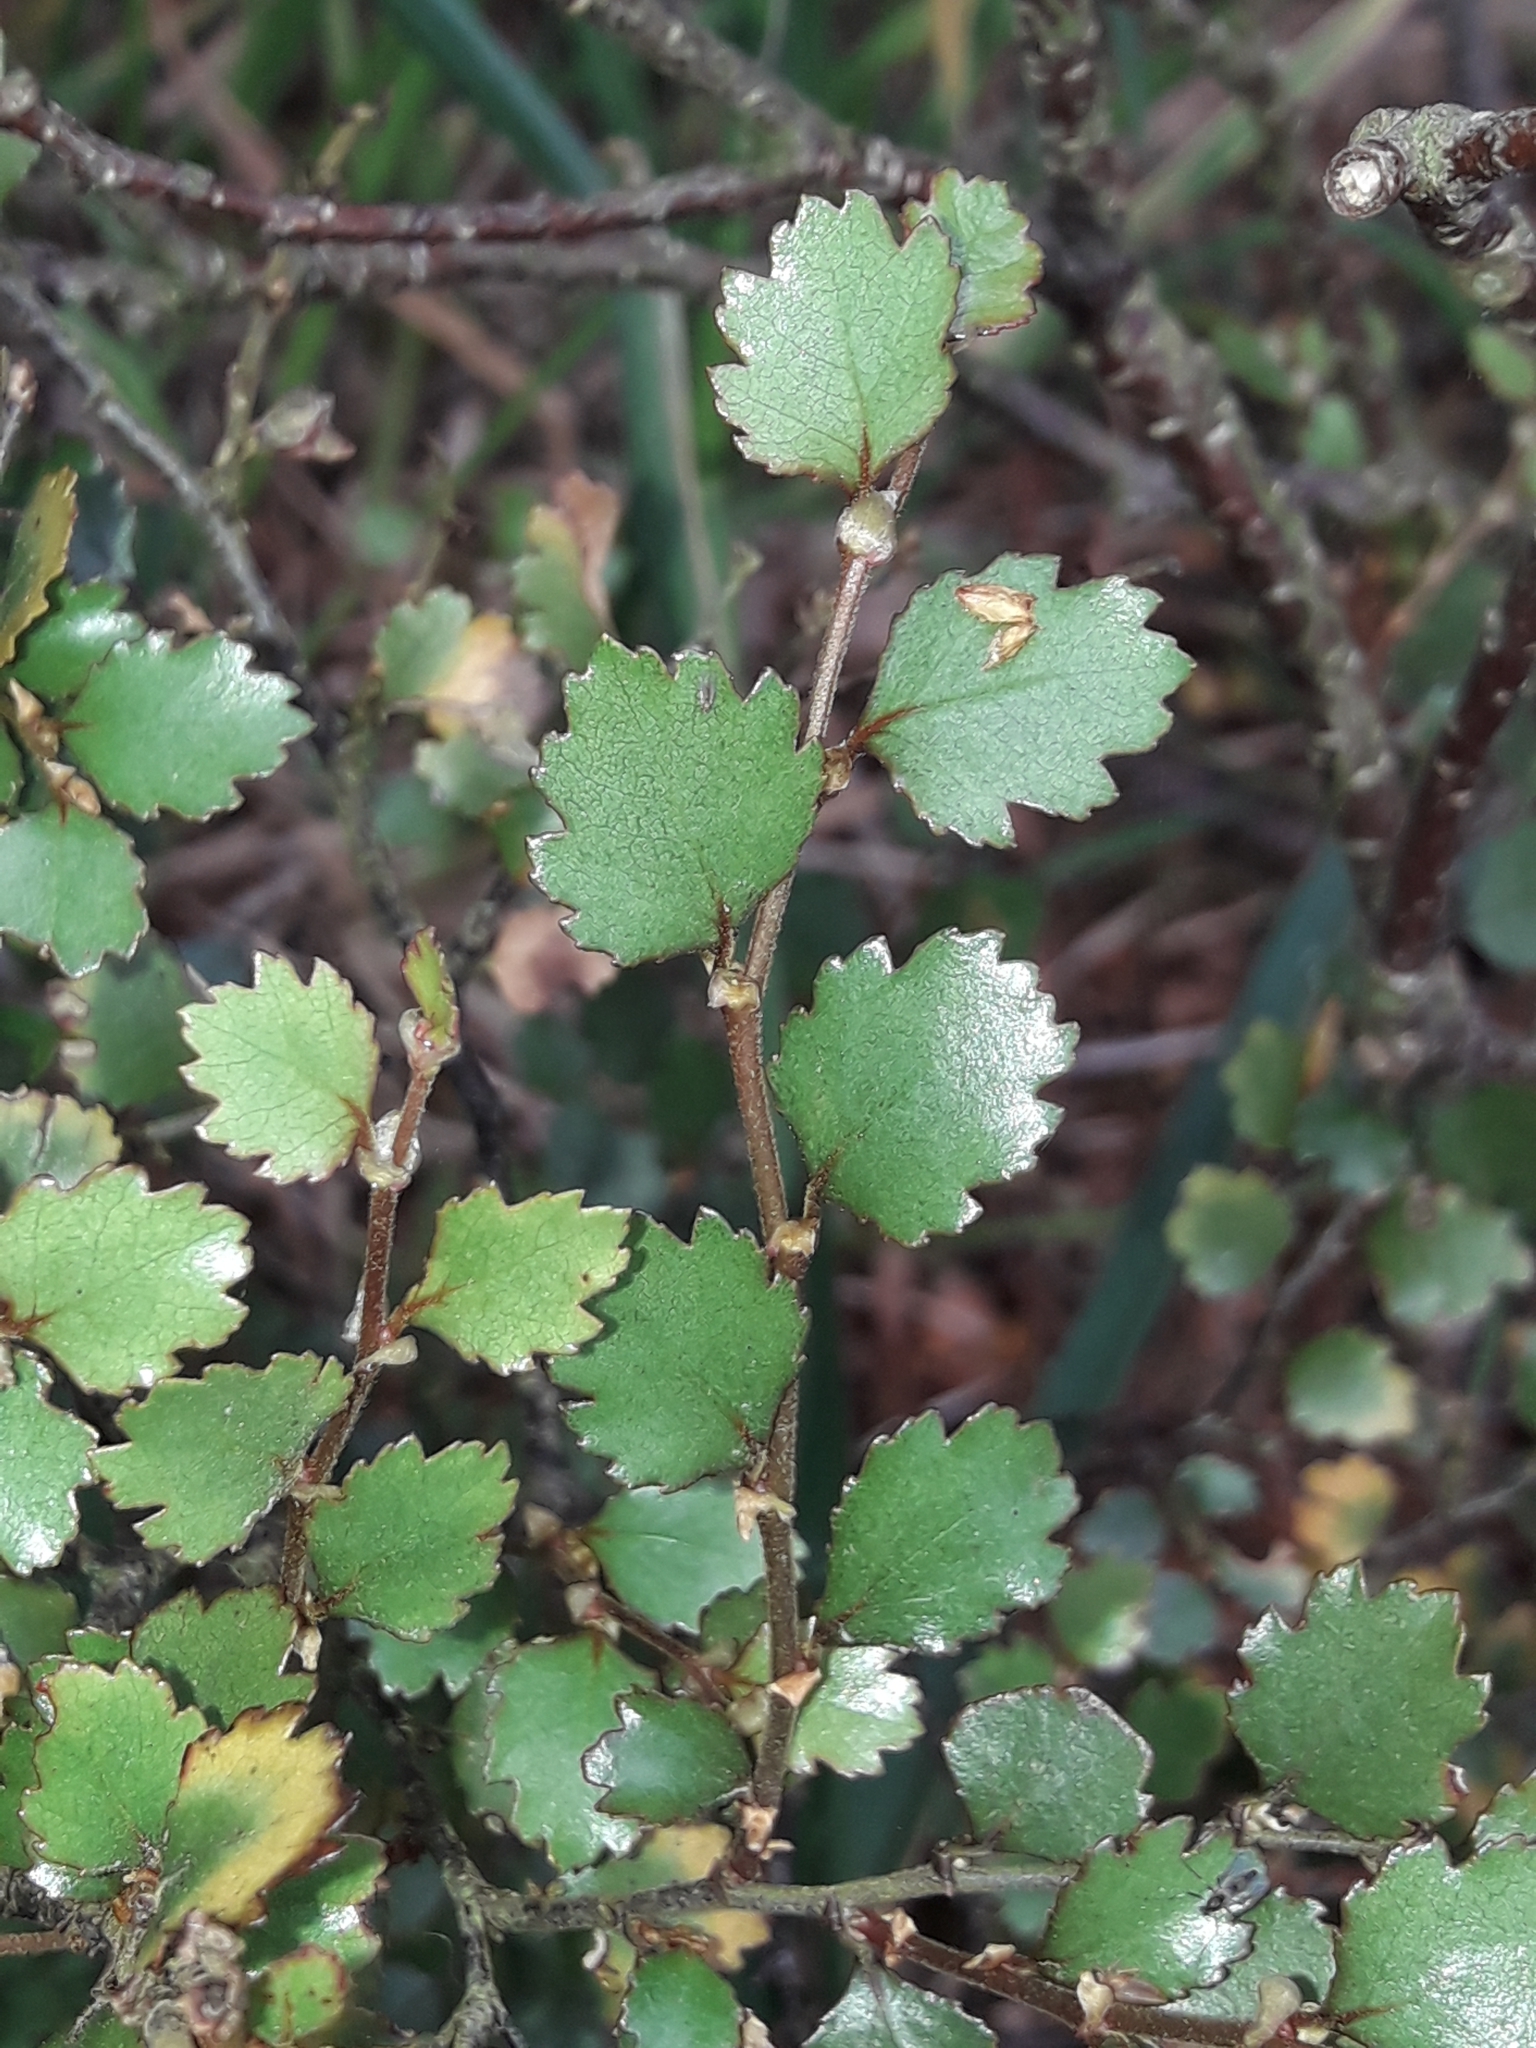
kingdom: Plantae
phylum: Tracheophyta
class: Magnoliopsida
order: Fagales
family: Nothofagaceae
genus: Nothofagus
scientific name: Nothofagus menziesii
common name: Silver beech
